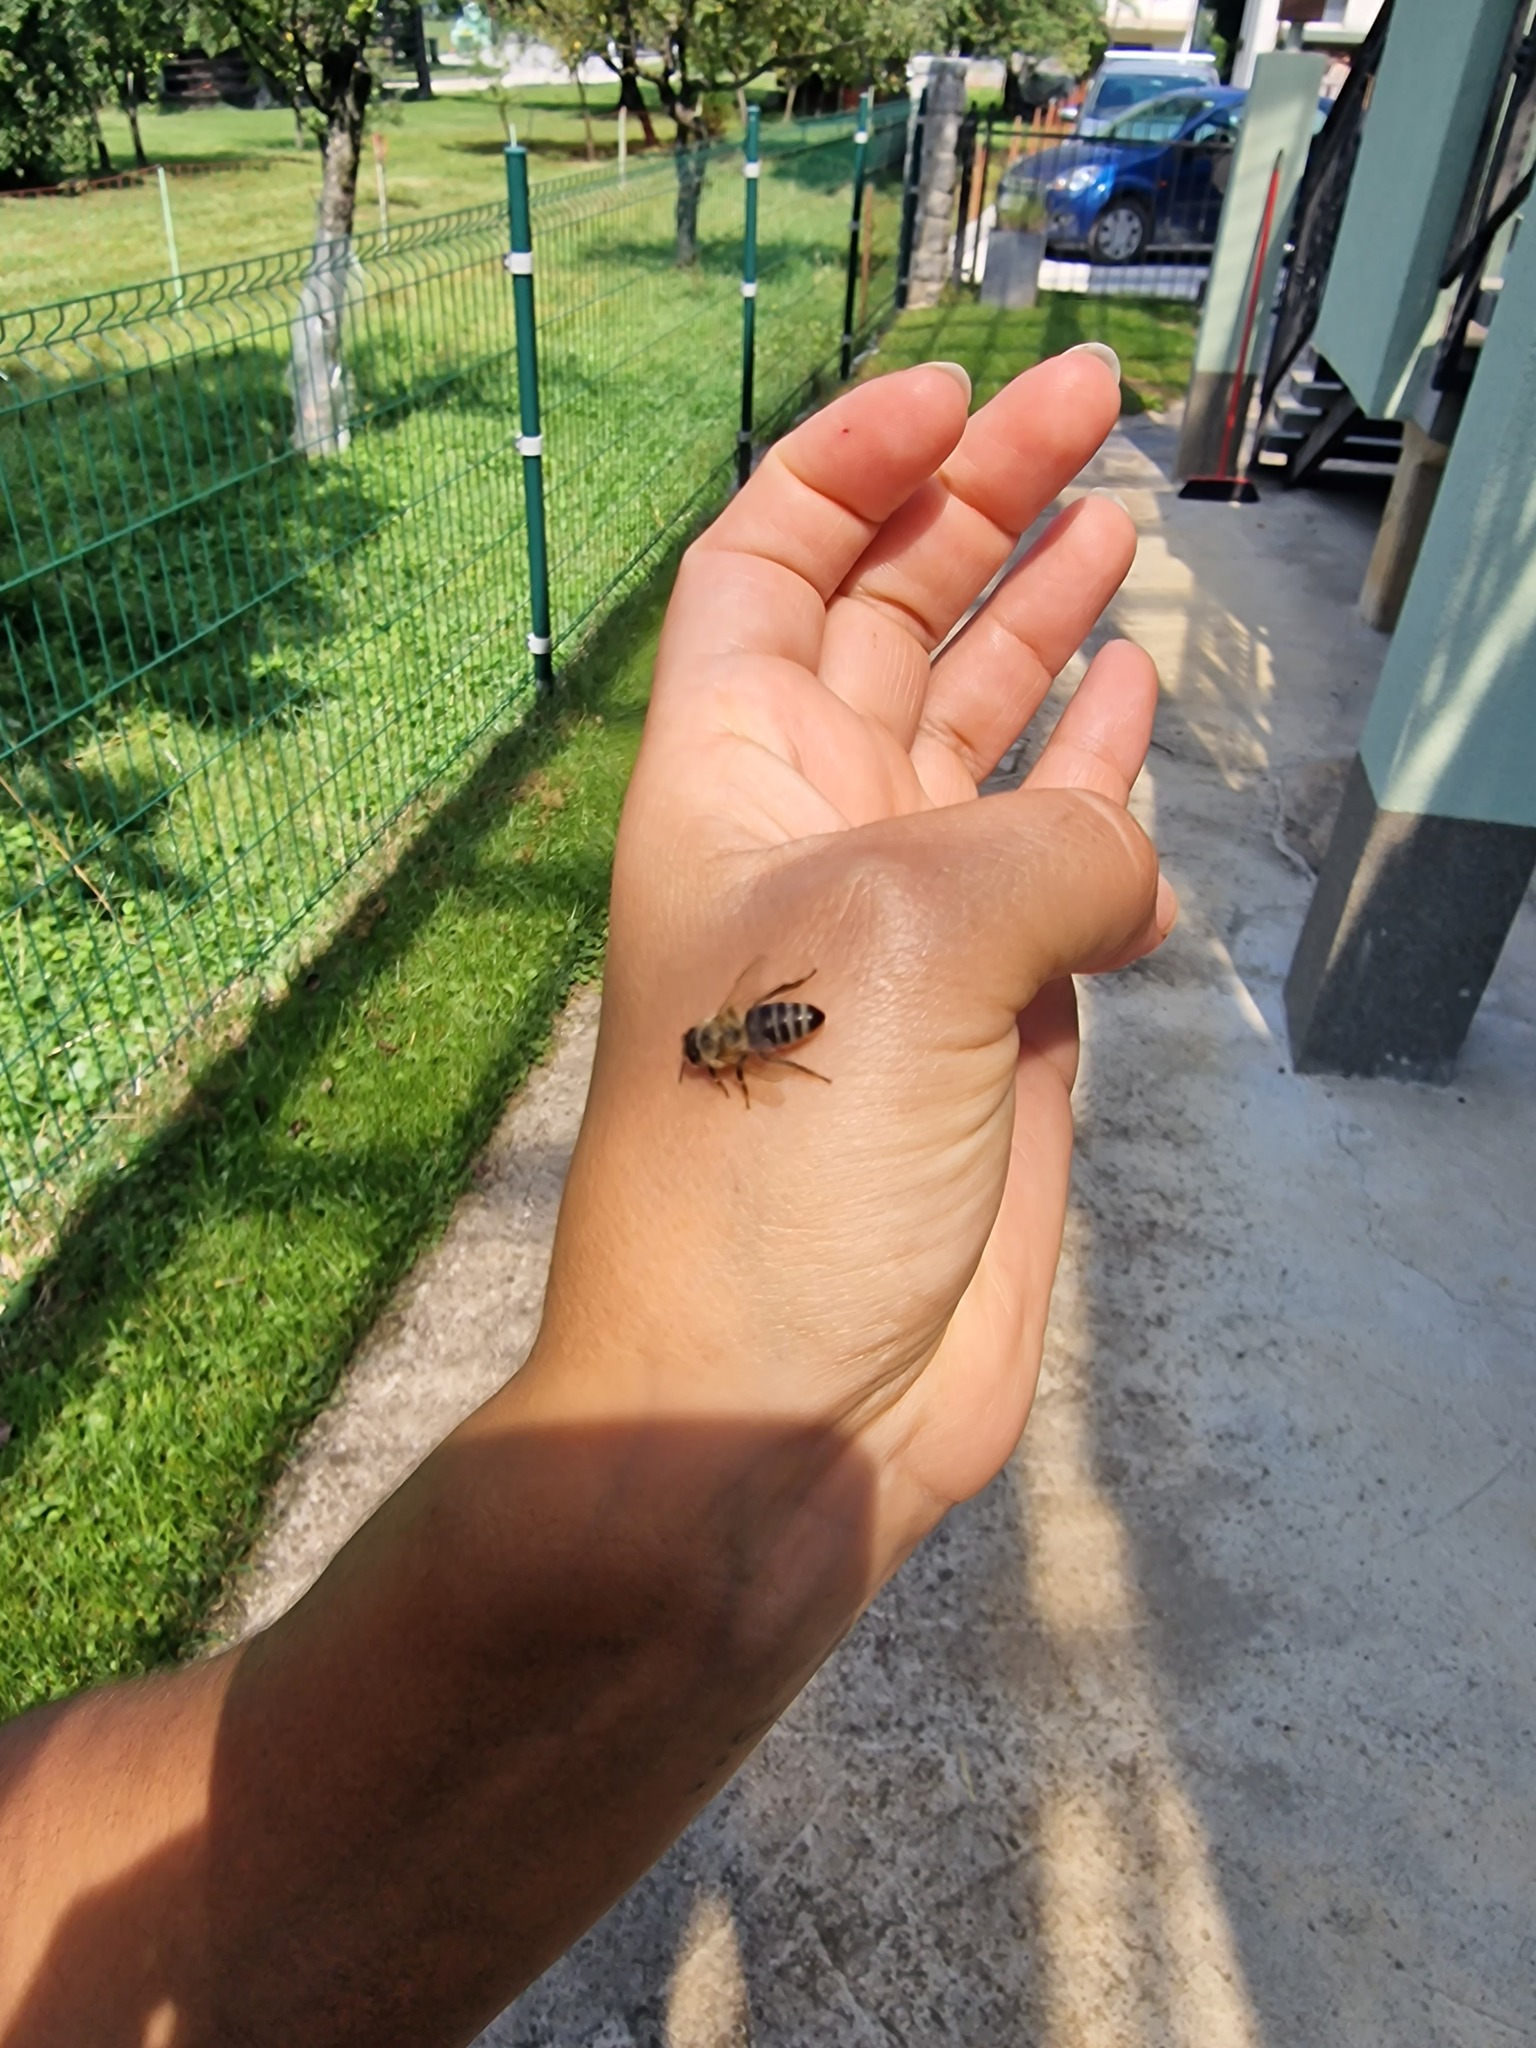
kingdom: Animalia
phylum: Arthropoda
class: Insecta
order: Hymenoptera
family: Apidae
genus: Apis
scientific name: Apis mellifera
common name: Honey bee
